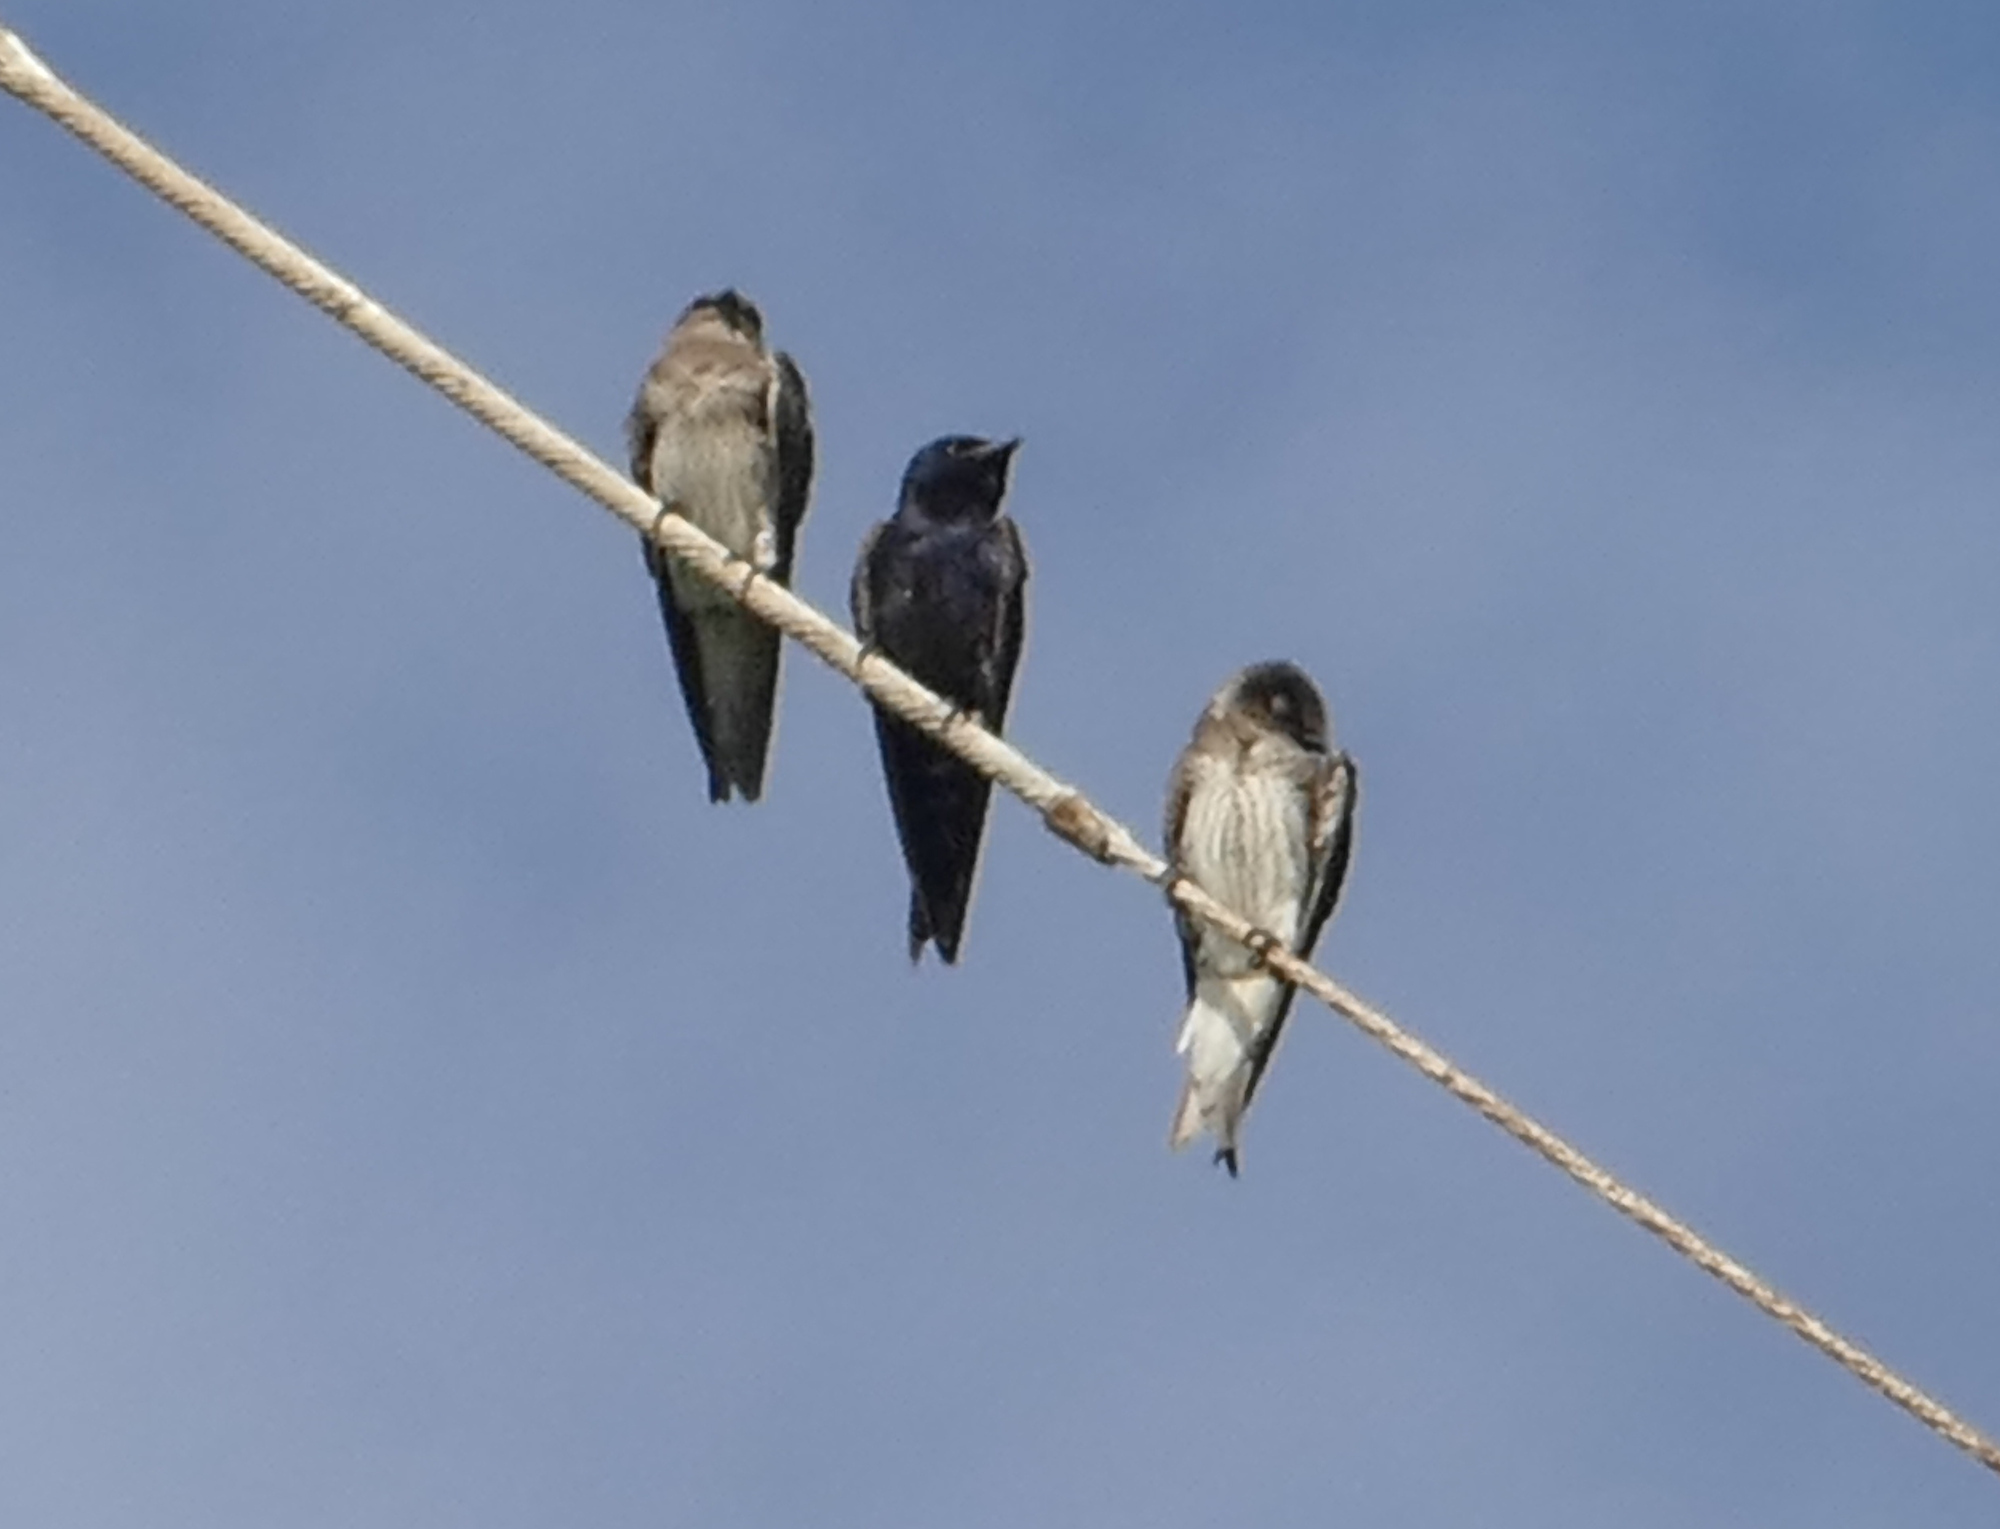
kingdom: Animalia
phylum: Chordata
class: Aves
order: Passeriformes
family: Hirundinidae
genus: Progne
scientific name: Progne subis
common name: Purple martin
